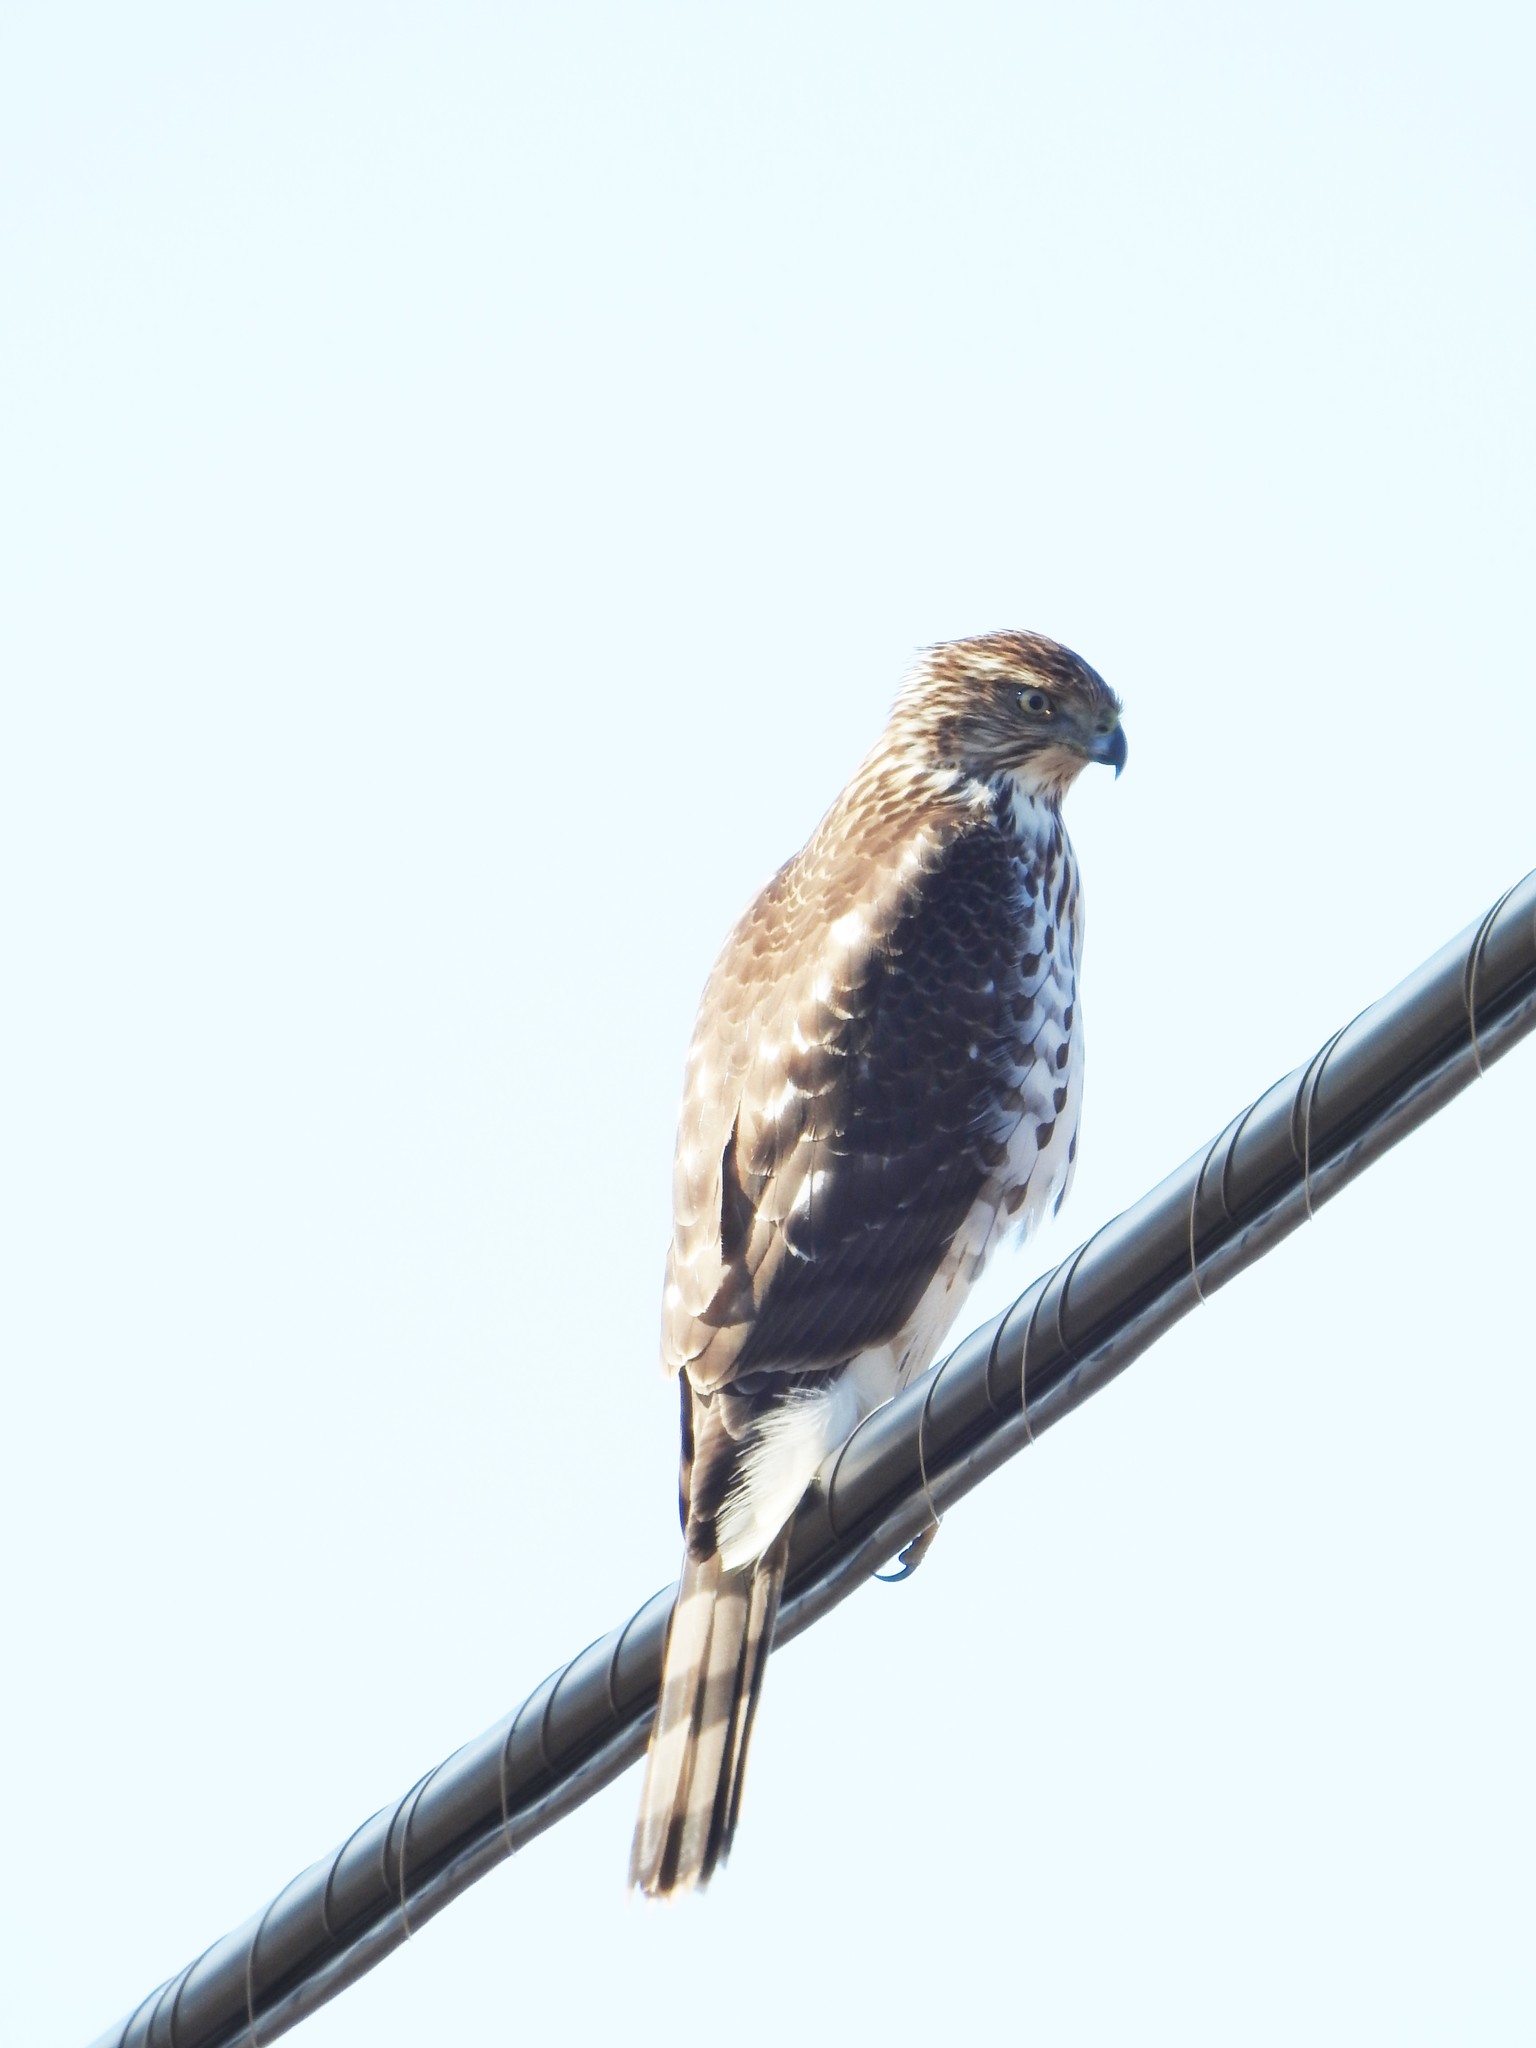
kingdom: Animalia
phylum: Chordata
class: Aves
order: Accipitriformes
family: Accipitridae
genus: Accipiter
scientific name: Accipiter cooperii
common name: Cooper's hawk
